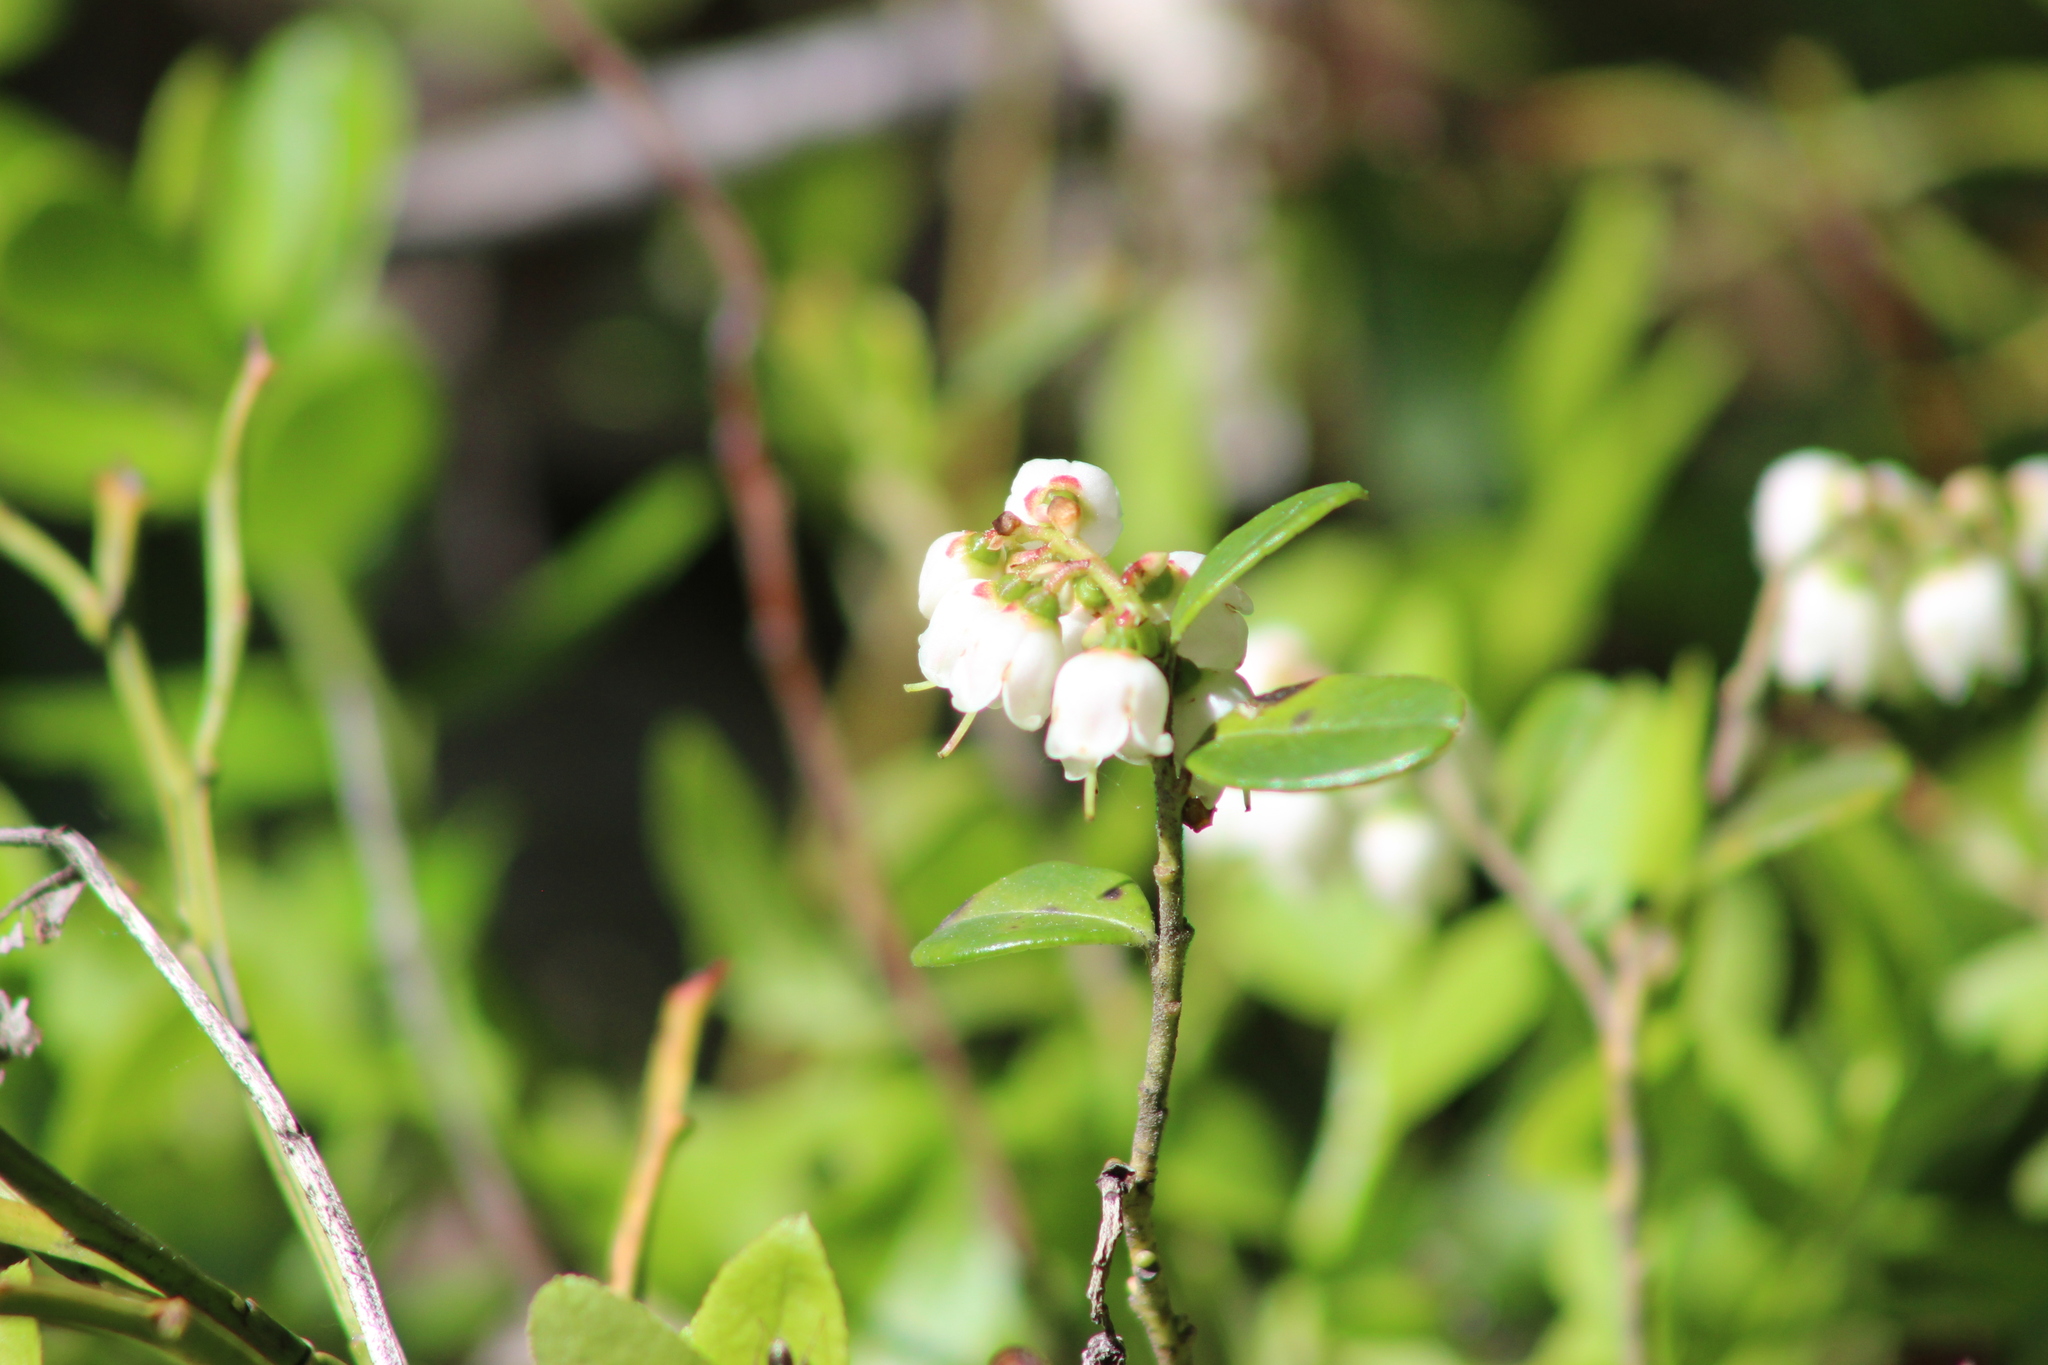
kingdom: Plantae
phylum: Tracheophyta
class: Magnoliopsida
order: Ericales
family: Ericaceae
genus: Vaccinium
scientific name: Vaccinium vitis-idaea
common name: Cowberry
